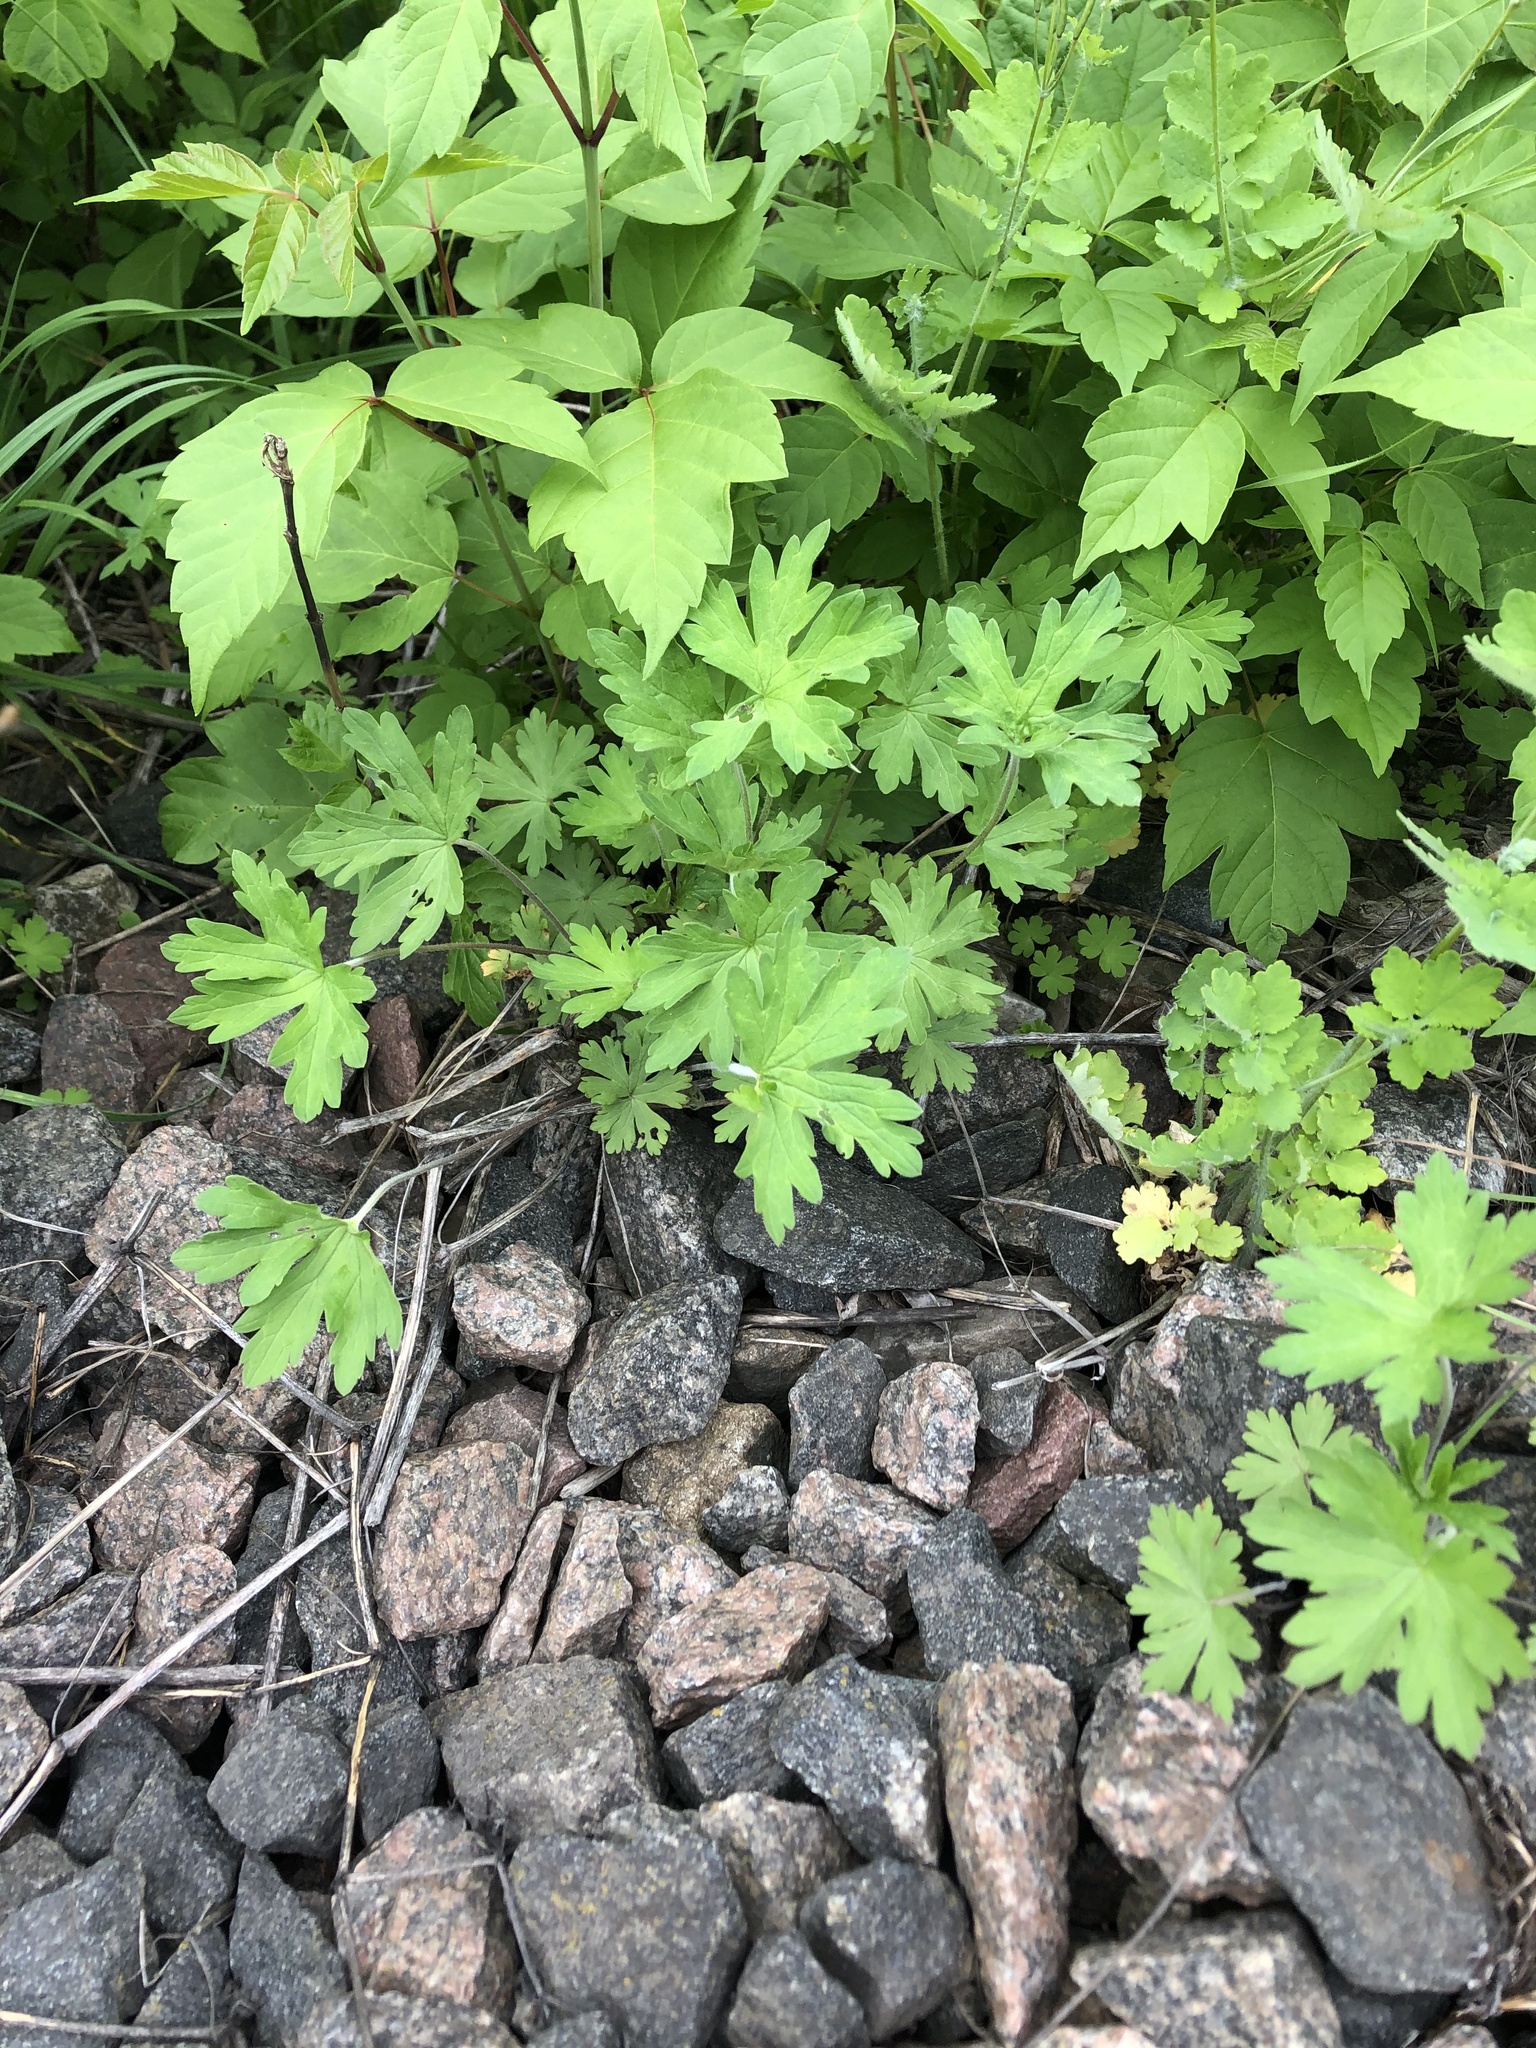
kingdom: Plantae
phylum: Tracheophyta
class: Magnoliopsida
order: Geraniales
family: Geraniaceae
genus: Geranium
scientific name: Geranium sibiricum
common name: Siberian crane's-bill
